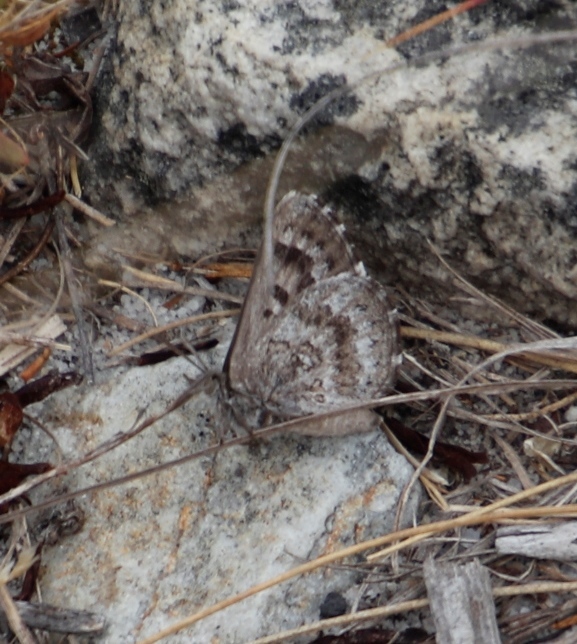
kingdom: Animalia
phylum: Arthropoda
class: Insecta
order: Lepidoptera
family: Lycaenidae
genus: Thestor
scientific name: Thestor yildizae
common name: Peninsula skolly
